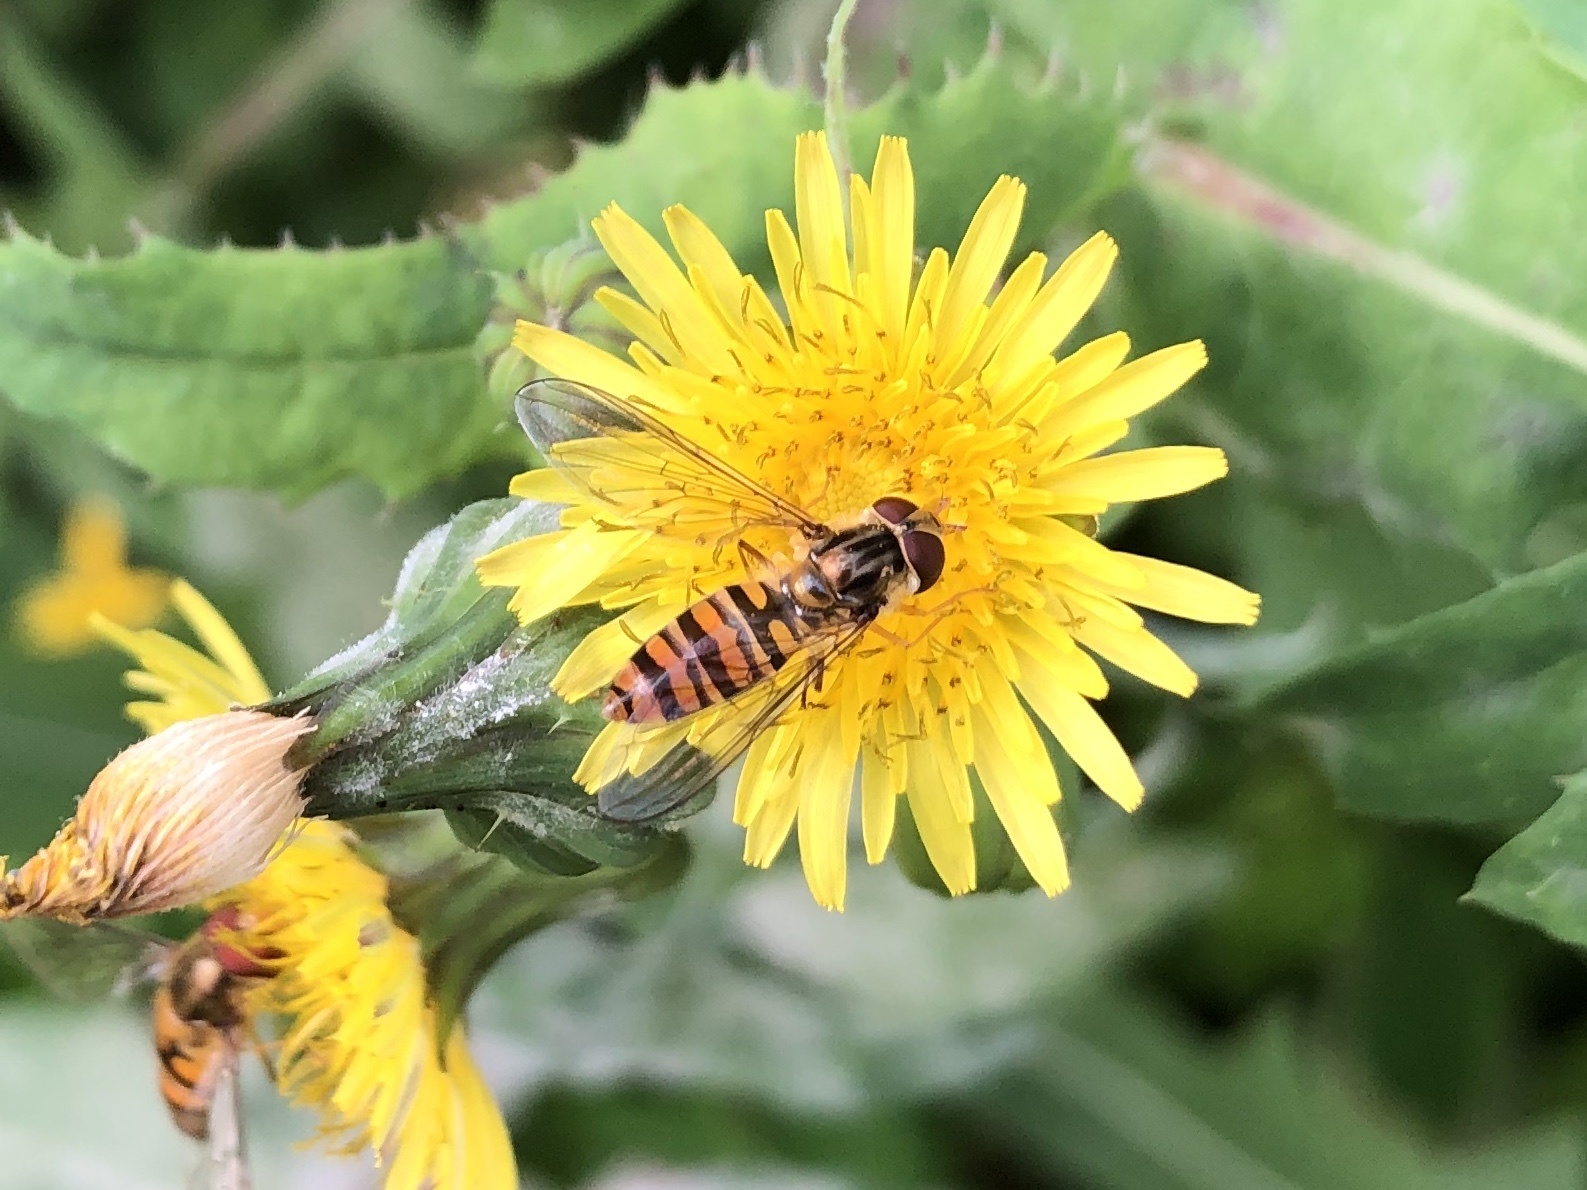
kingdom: Animalia
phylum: Arthropoda
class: Insecta
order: Diptera
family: Syrphidae
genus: Episyrphus
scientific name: Episyrphus balteatus
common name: Marmalade hoverfly
